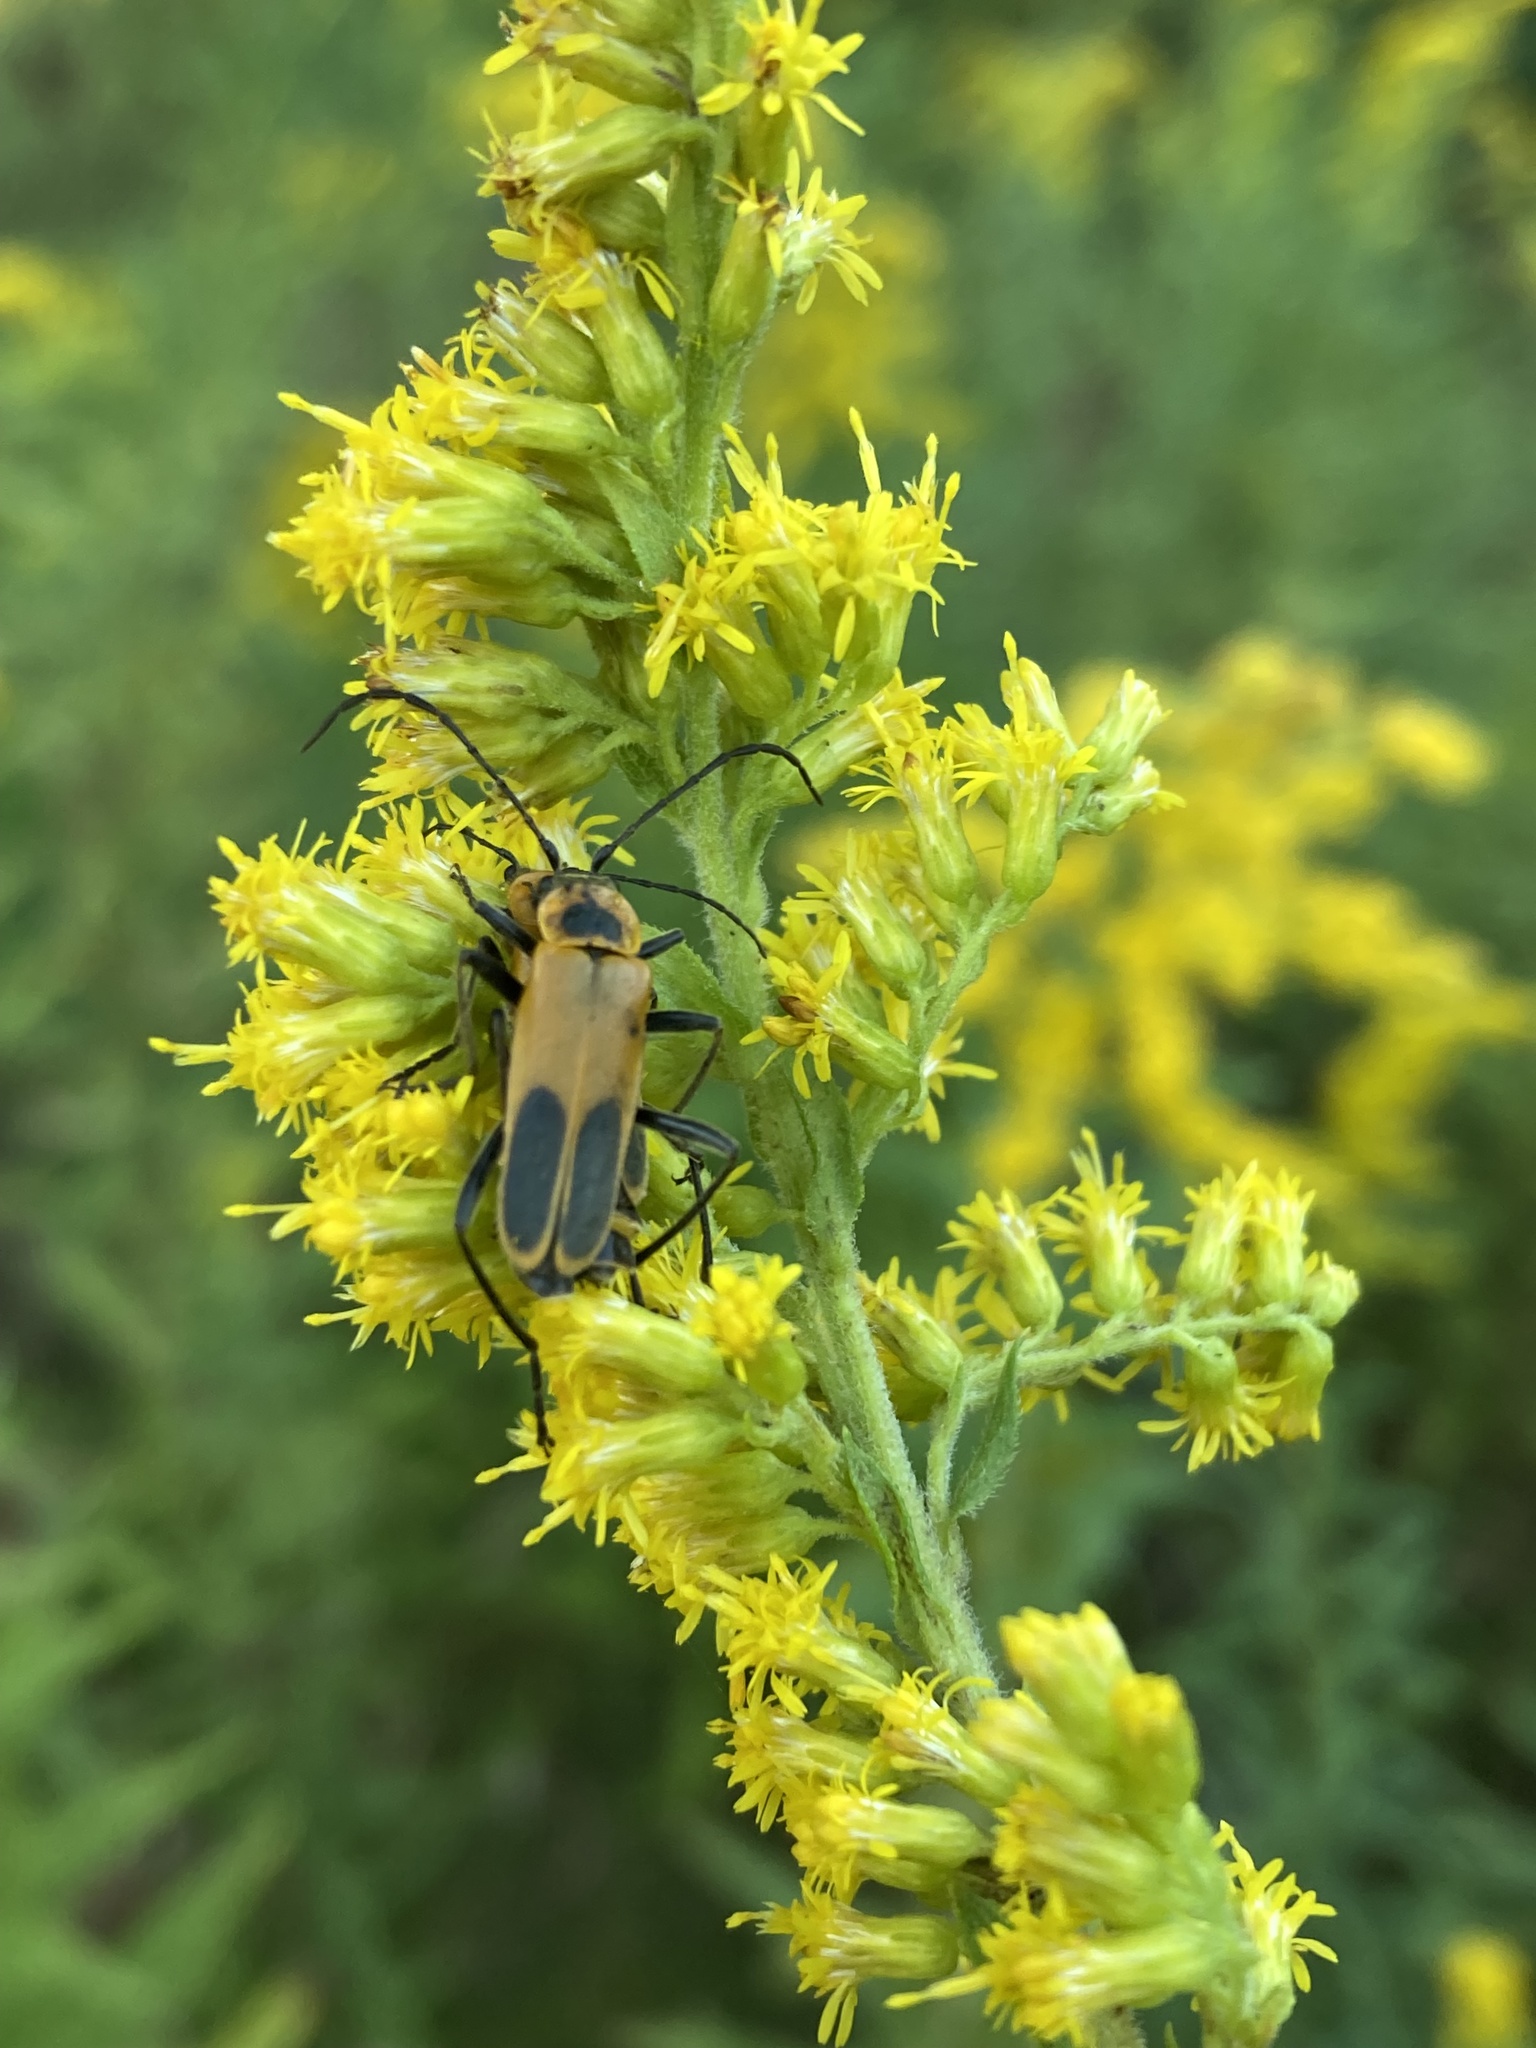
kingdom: Animalia
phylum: Arthropoda
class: Insecta
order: Coleoptera
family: Cantharidae
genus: Chauliognathus
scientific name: Chauliognathus pensylvanicus
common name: Goldenrod soldier beetle
